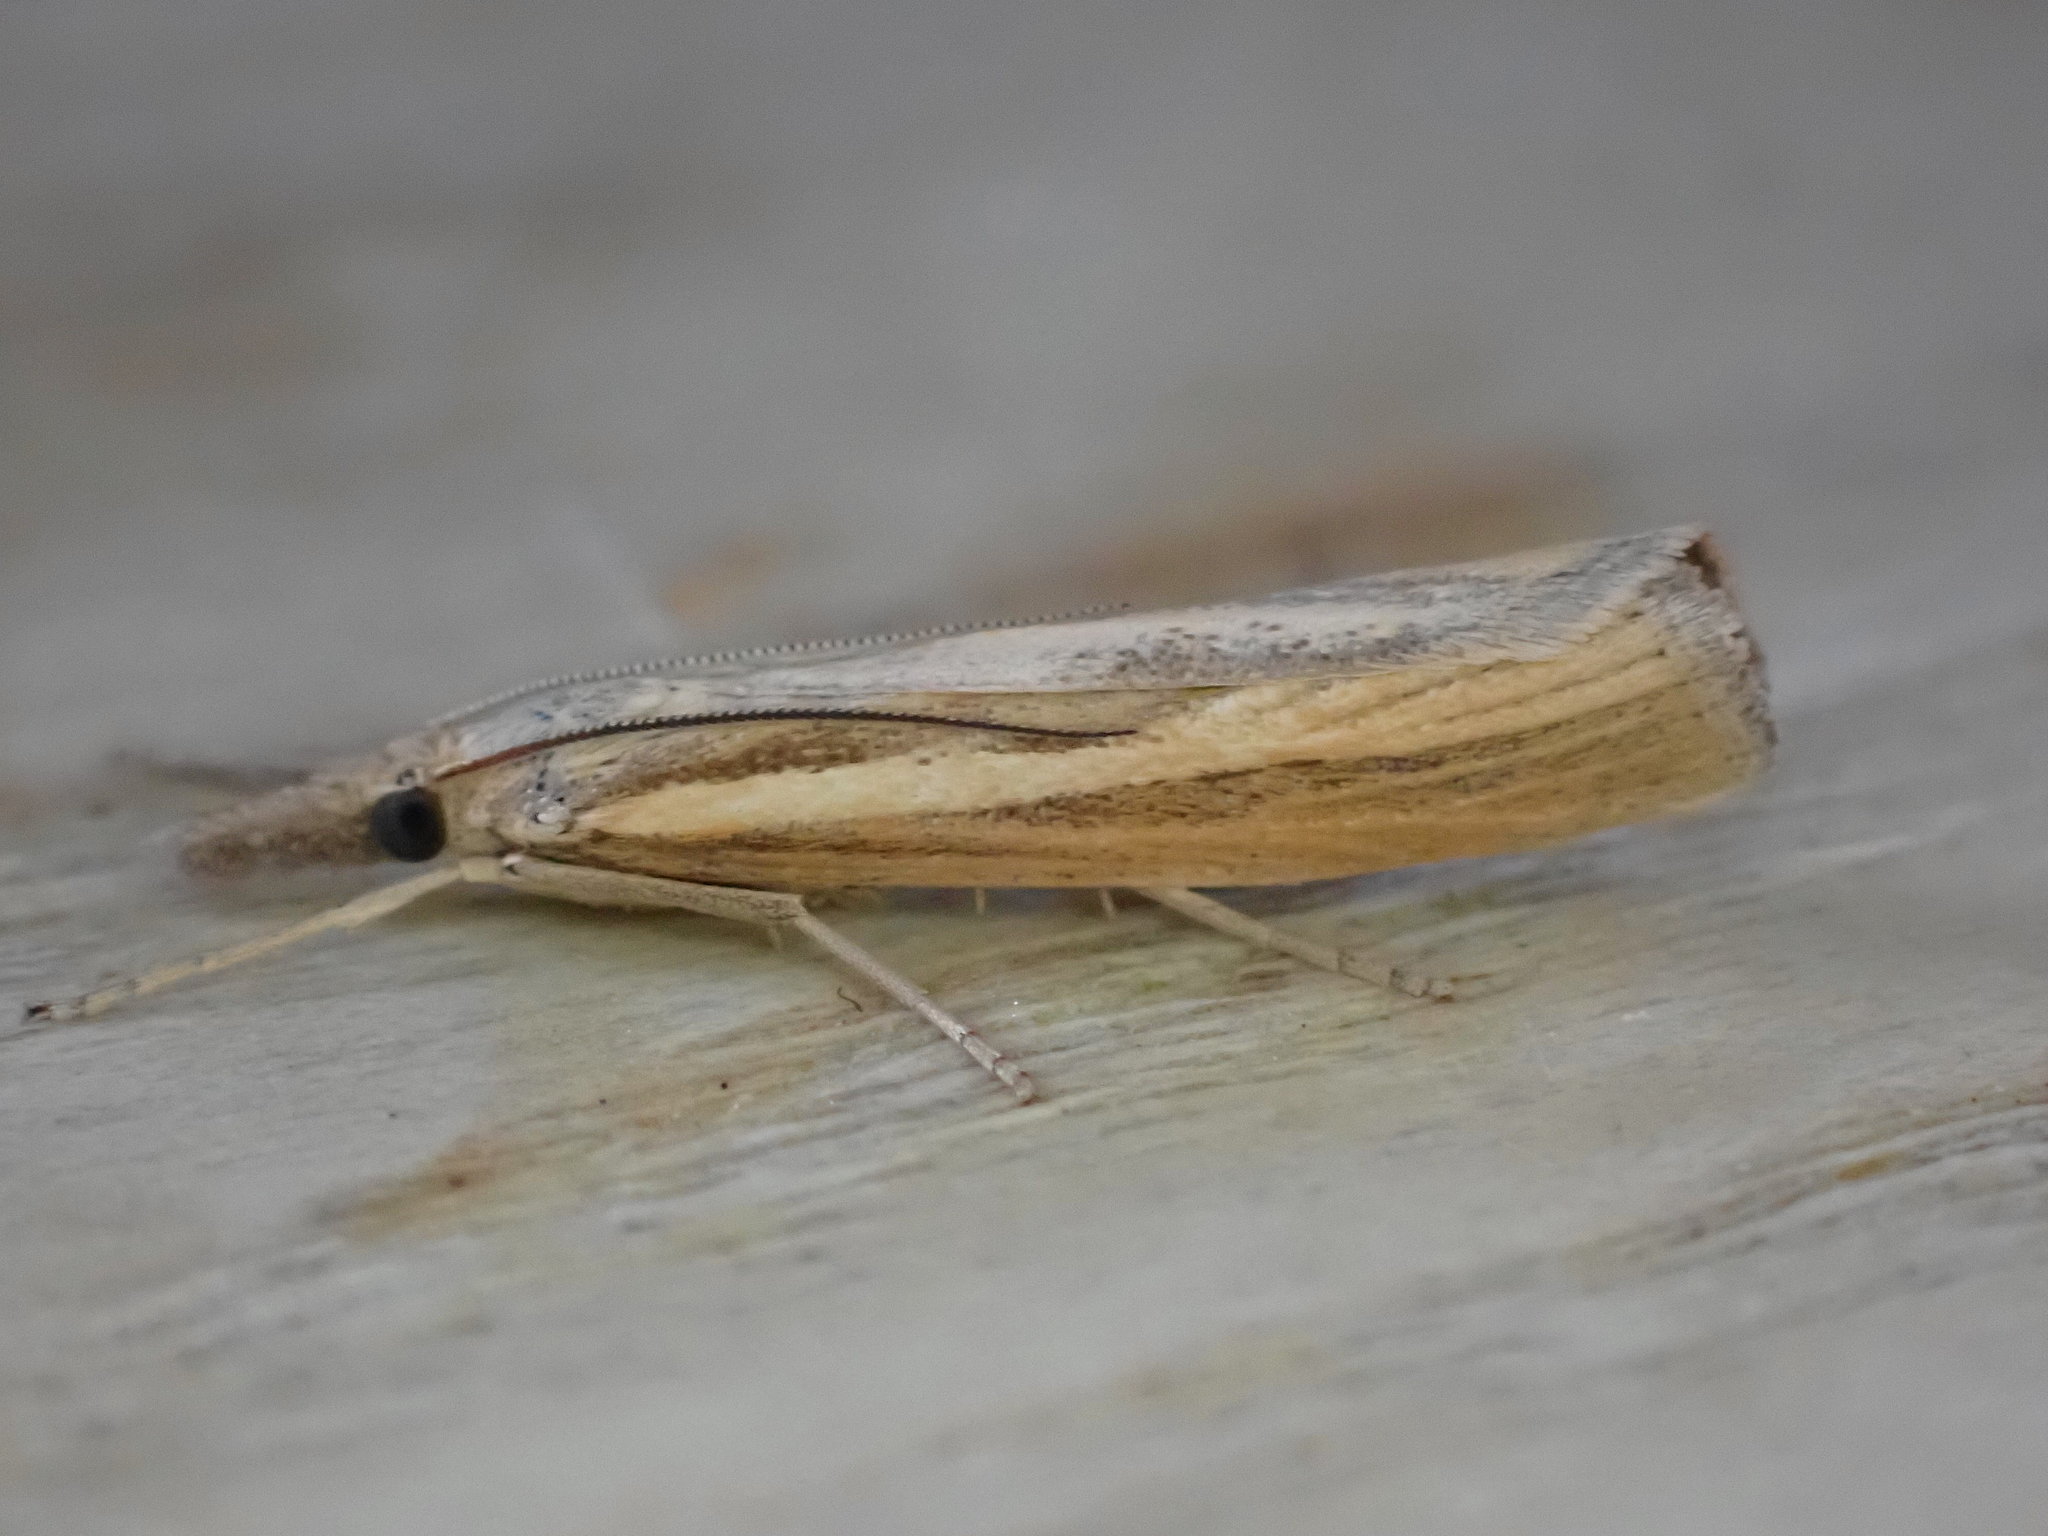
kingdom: Animalia
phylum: Arthropoda
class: Insecta
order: Lepidoptera
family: Crambidae
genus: Agriphila
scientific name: Agriphila tristellus
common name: Common grass-veneer
